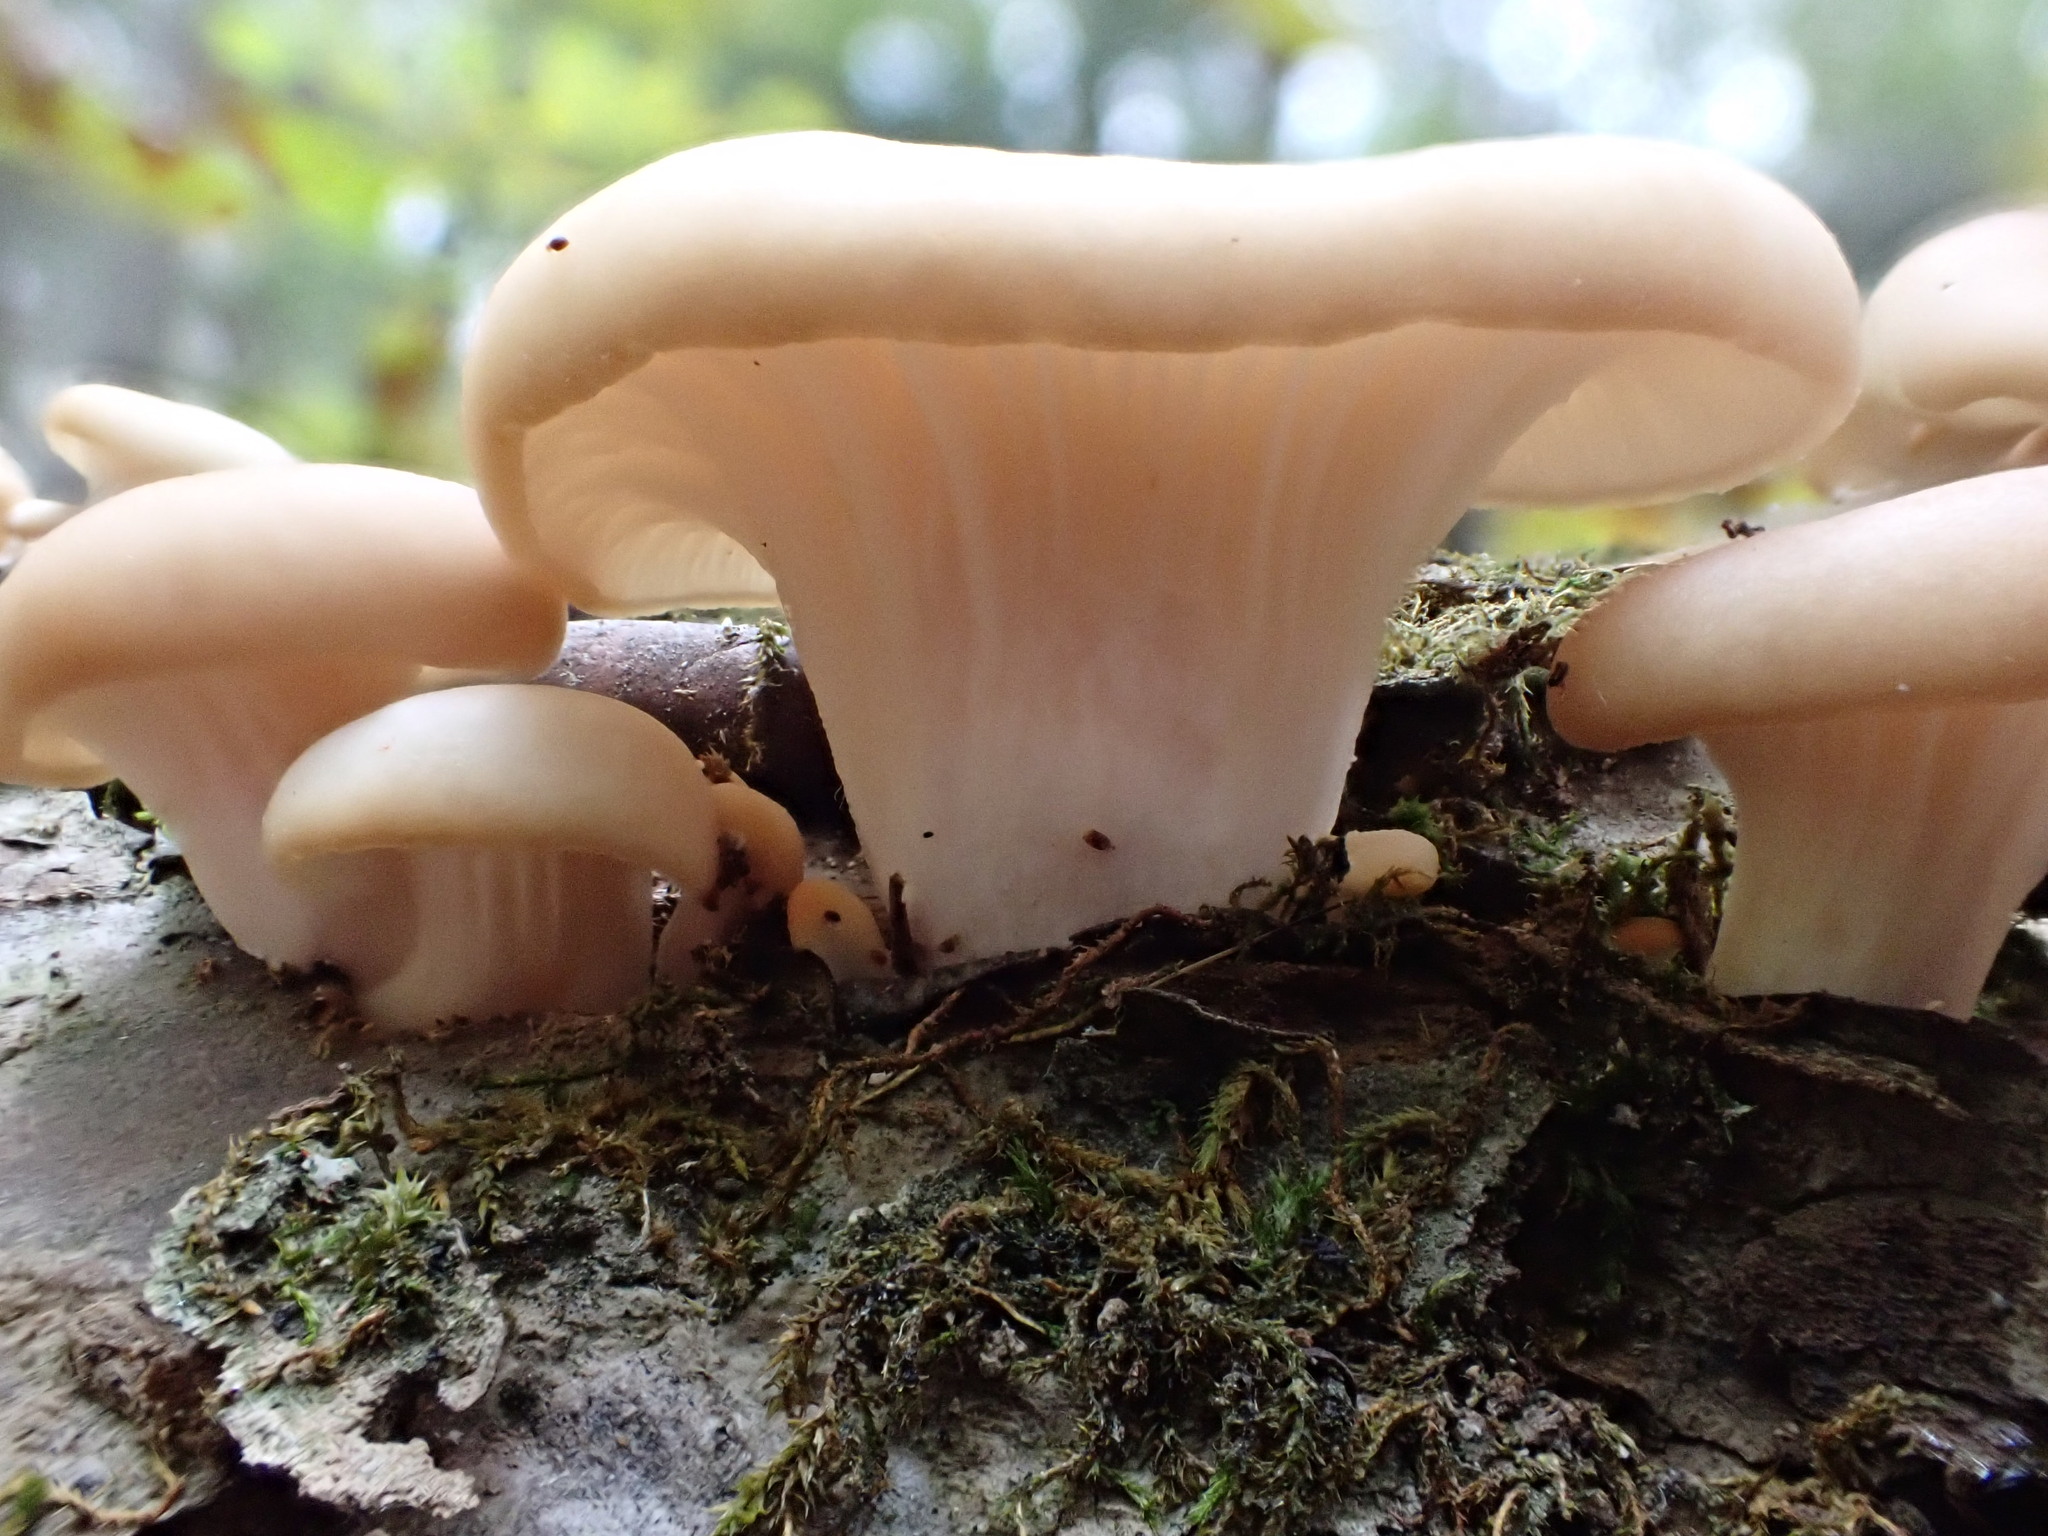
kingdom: Fungi
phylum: Basidiomycota
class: Agaricomycetes
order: Agaricales
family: Pleurotaceae
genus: Pleurotus
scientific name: Pleurotus ostreatus
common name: Oyster mushroom
